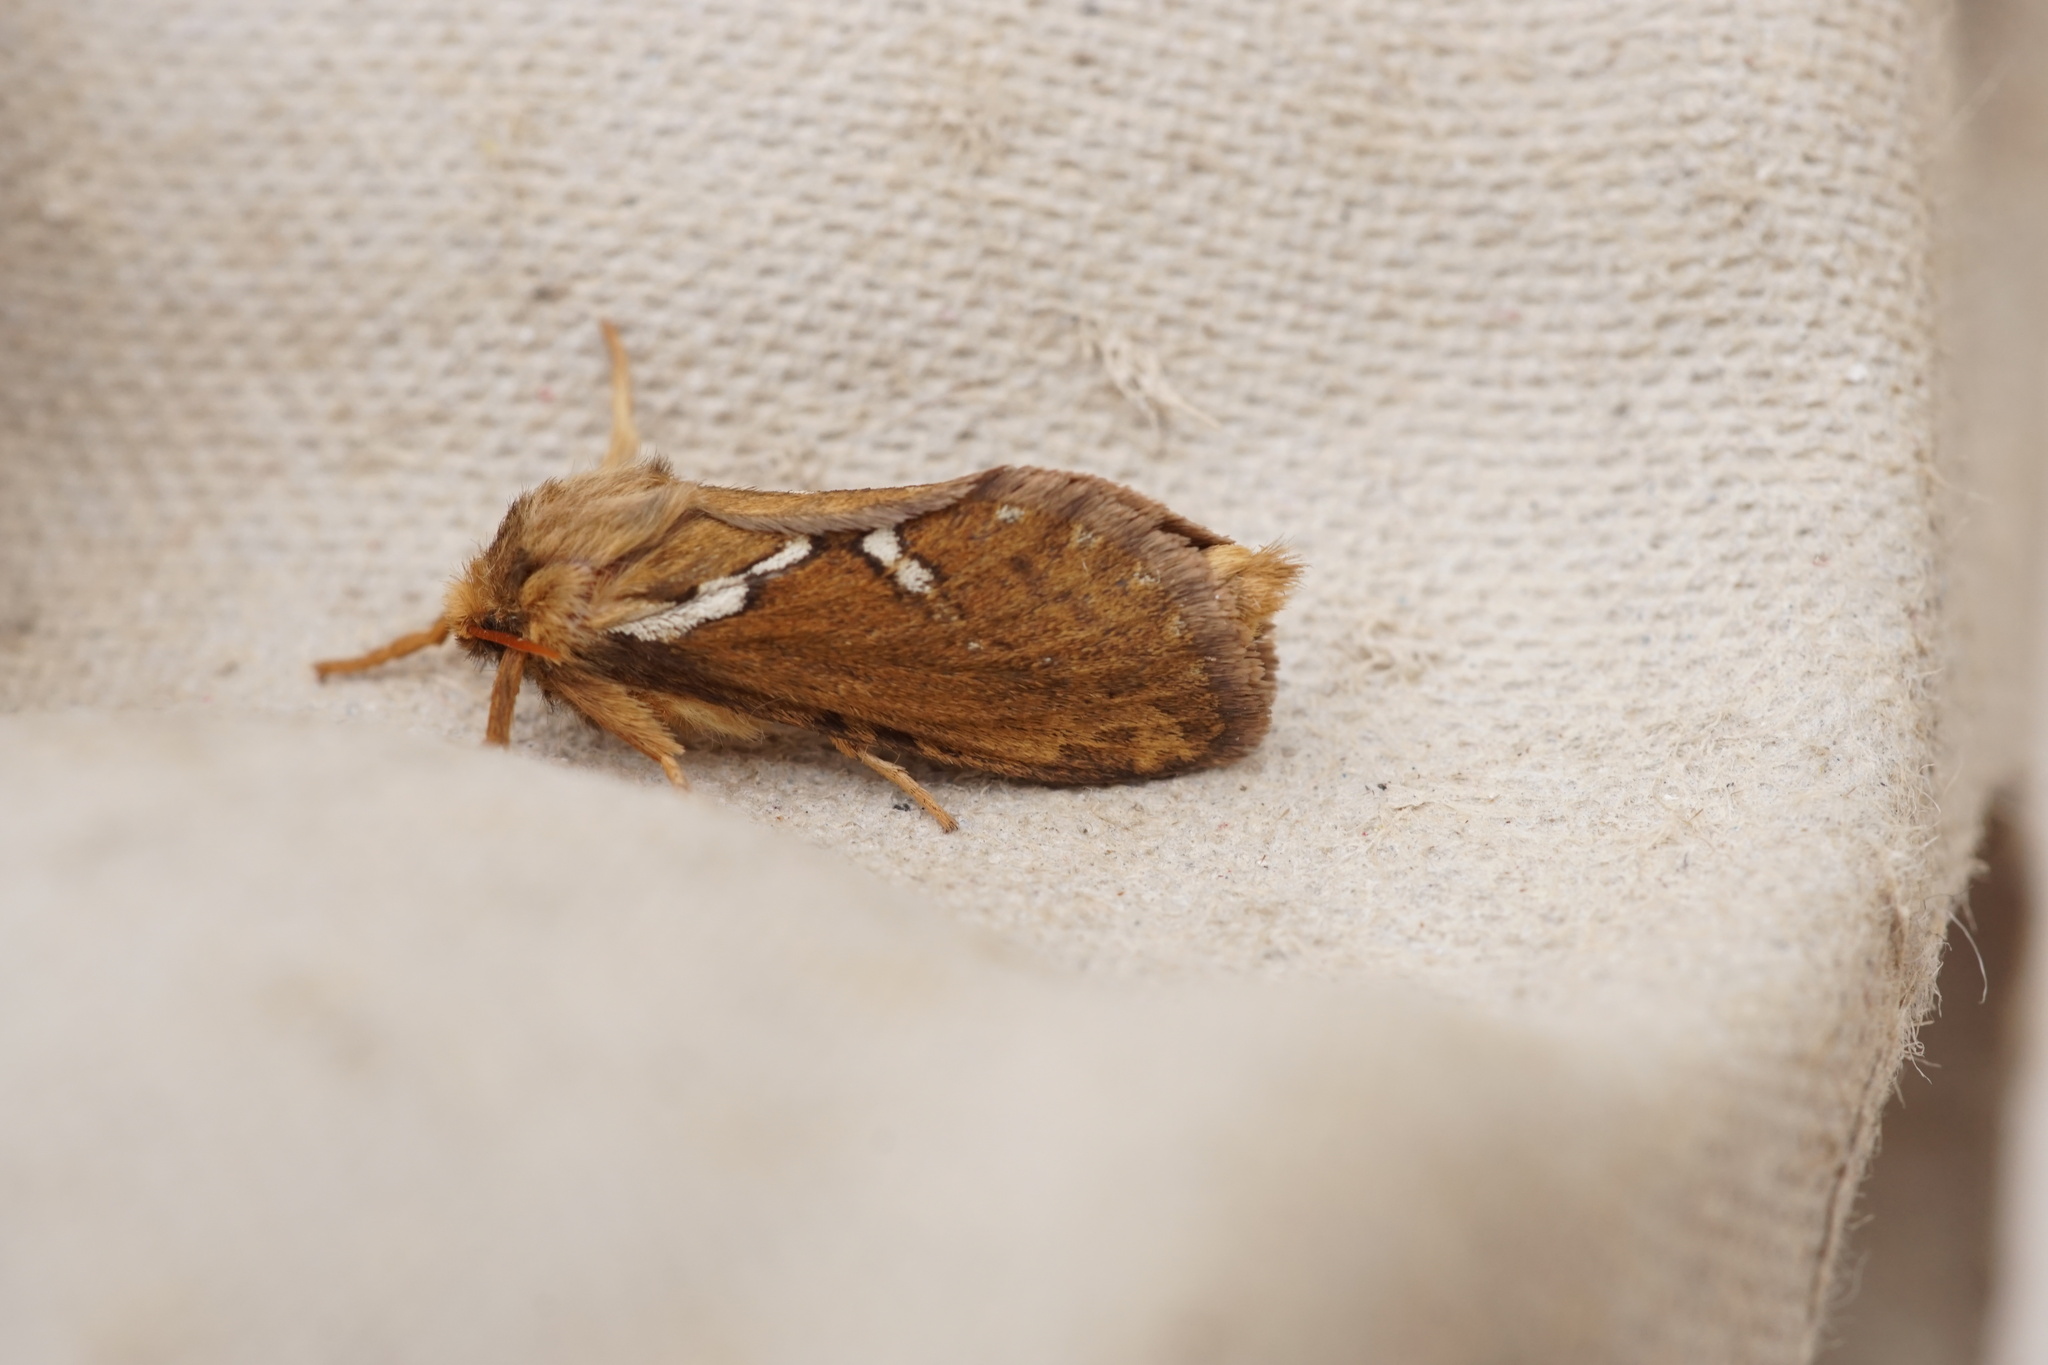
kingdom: Animalia
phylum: Arthropoda
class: Insecta
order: Lepidoptera
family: Hepialidae
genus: Korscheltellus
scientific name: Korscheltellus lupulina
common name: Common swift
